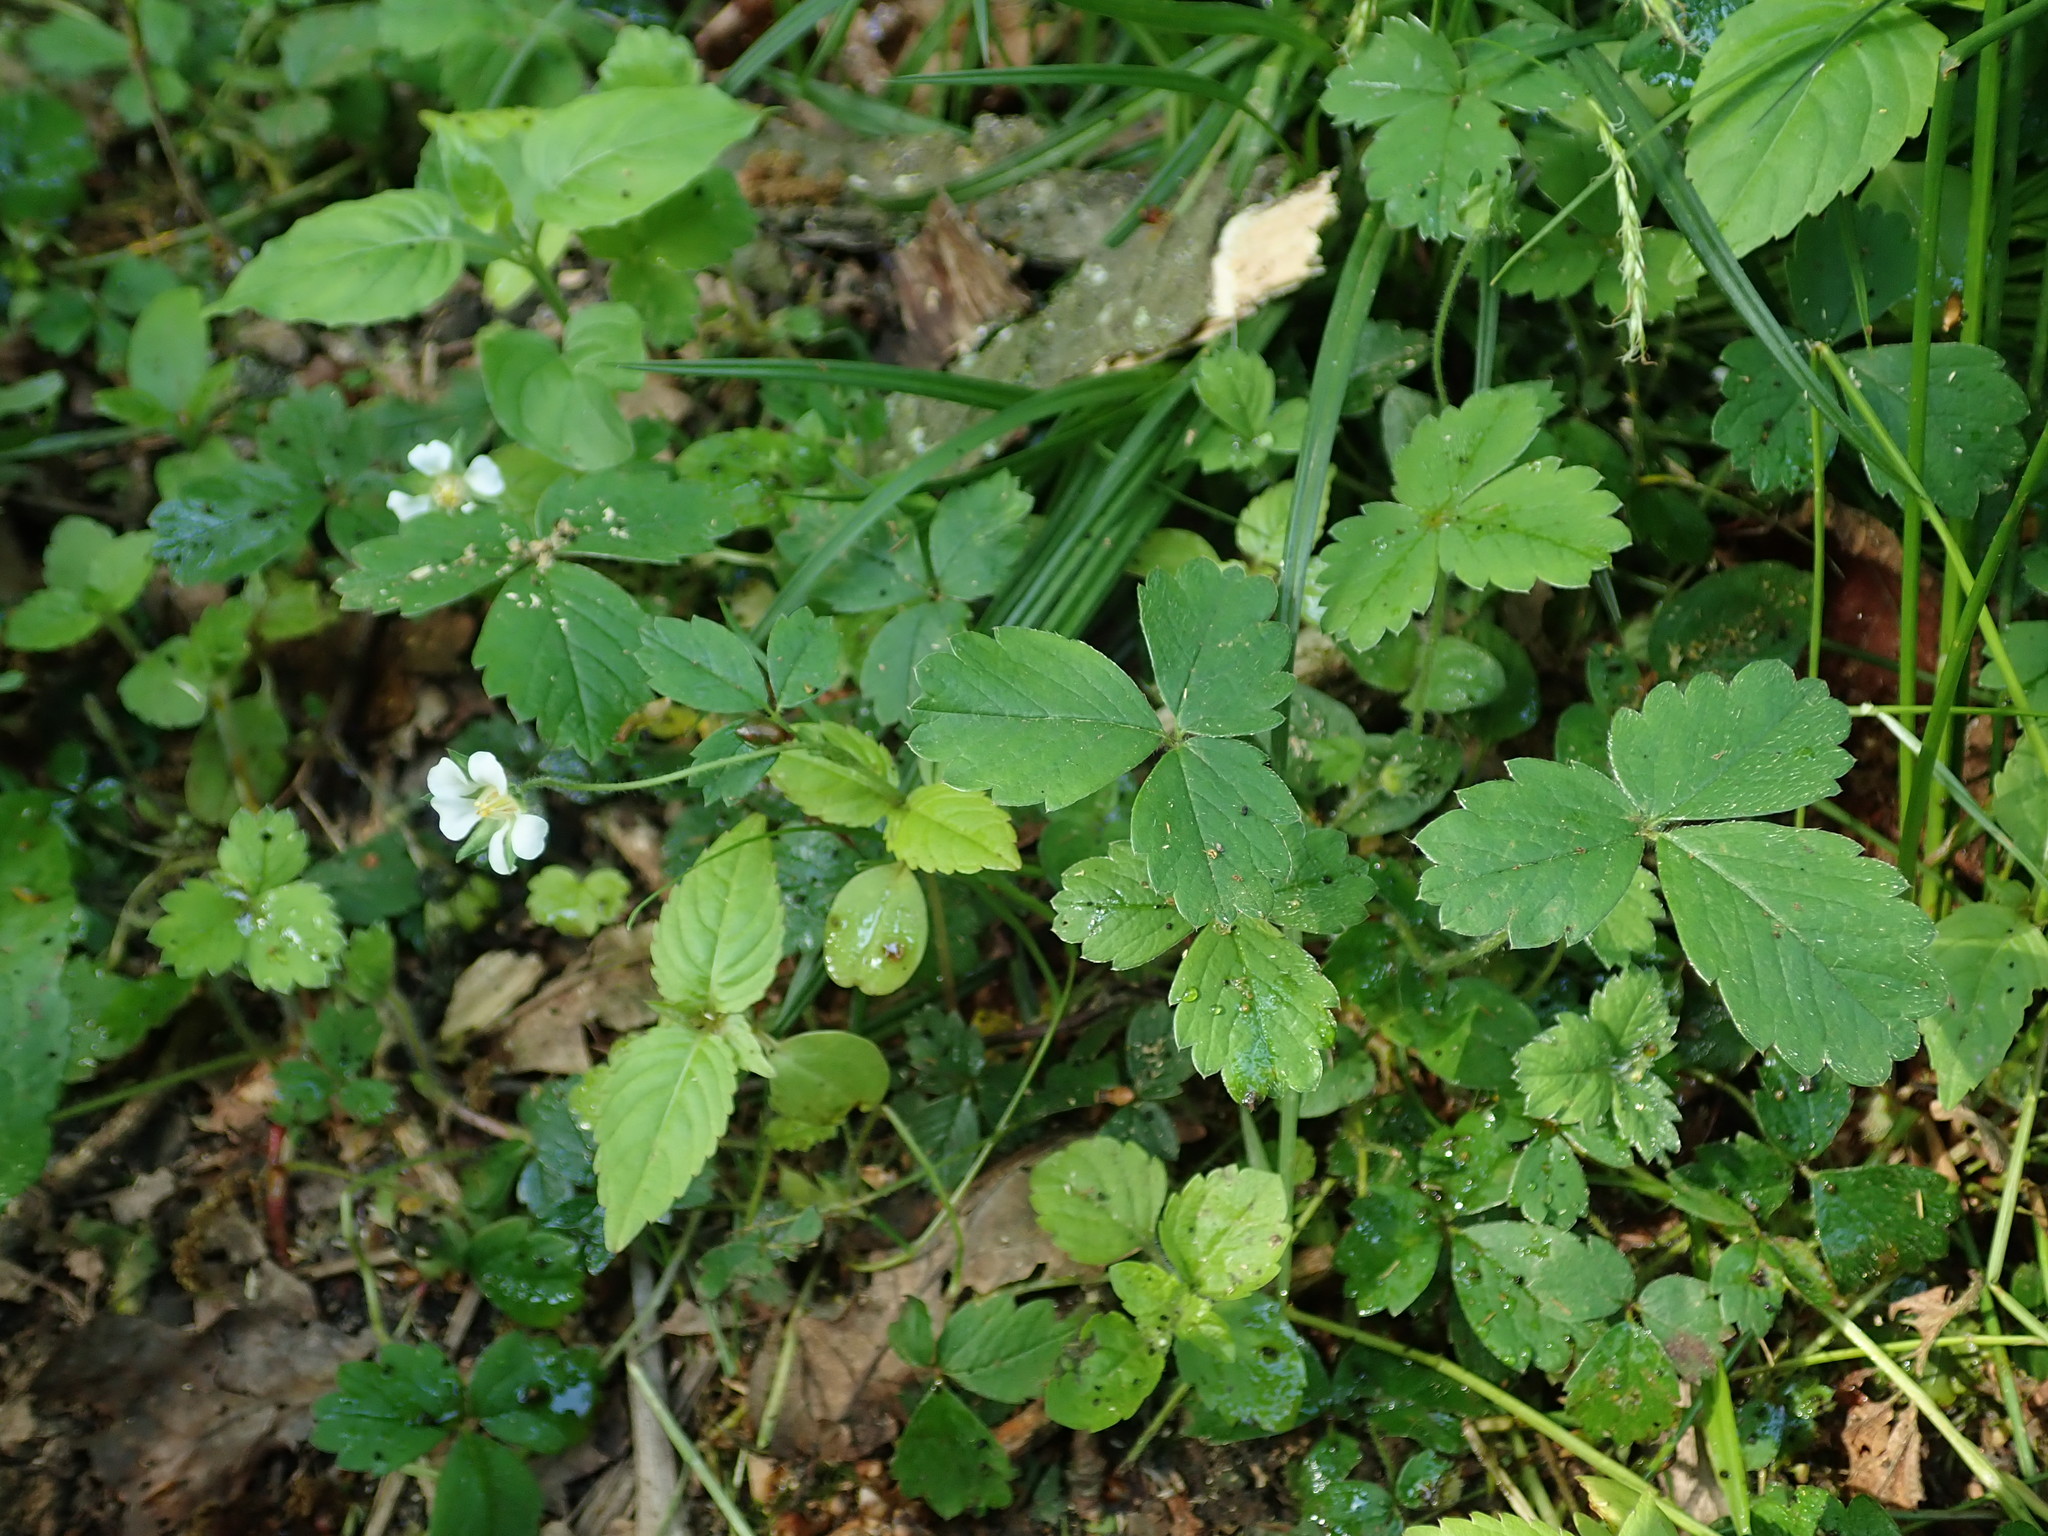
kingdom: Plantae
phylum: Tracheophyta
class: Magnoliopsida
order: Rosales
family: Rosaceae
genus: Potentilla
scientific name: Potentilla sterilis
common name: Barren strawberry
